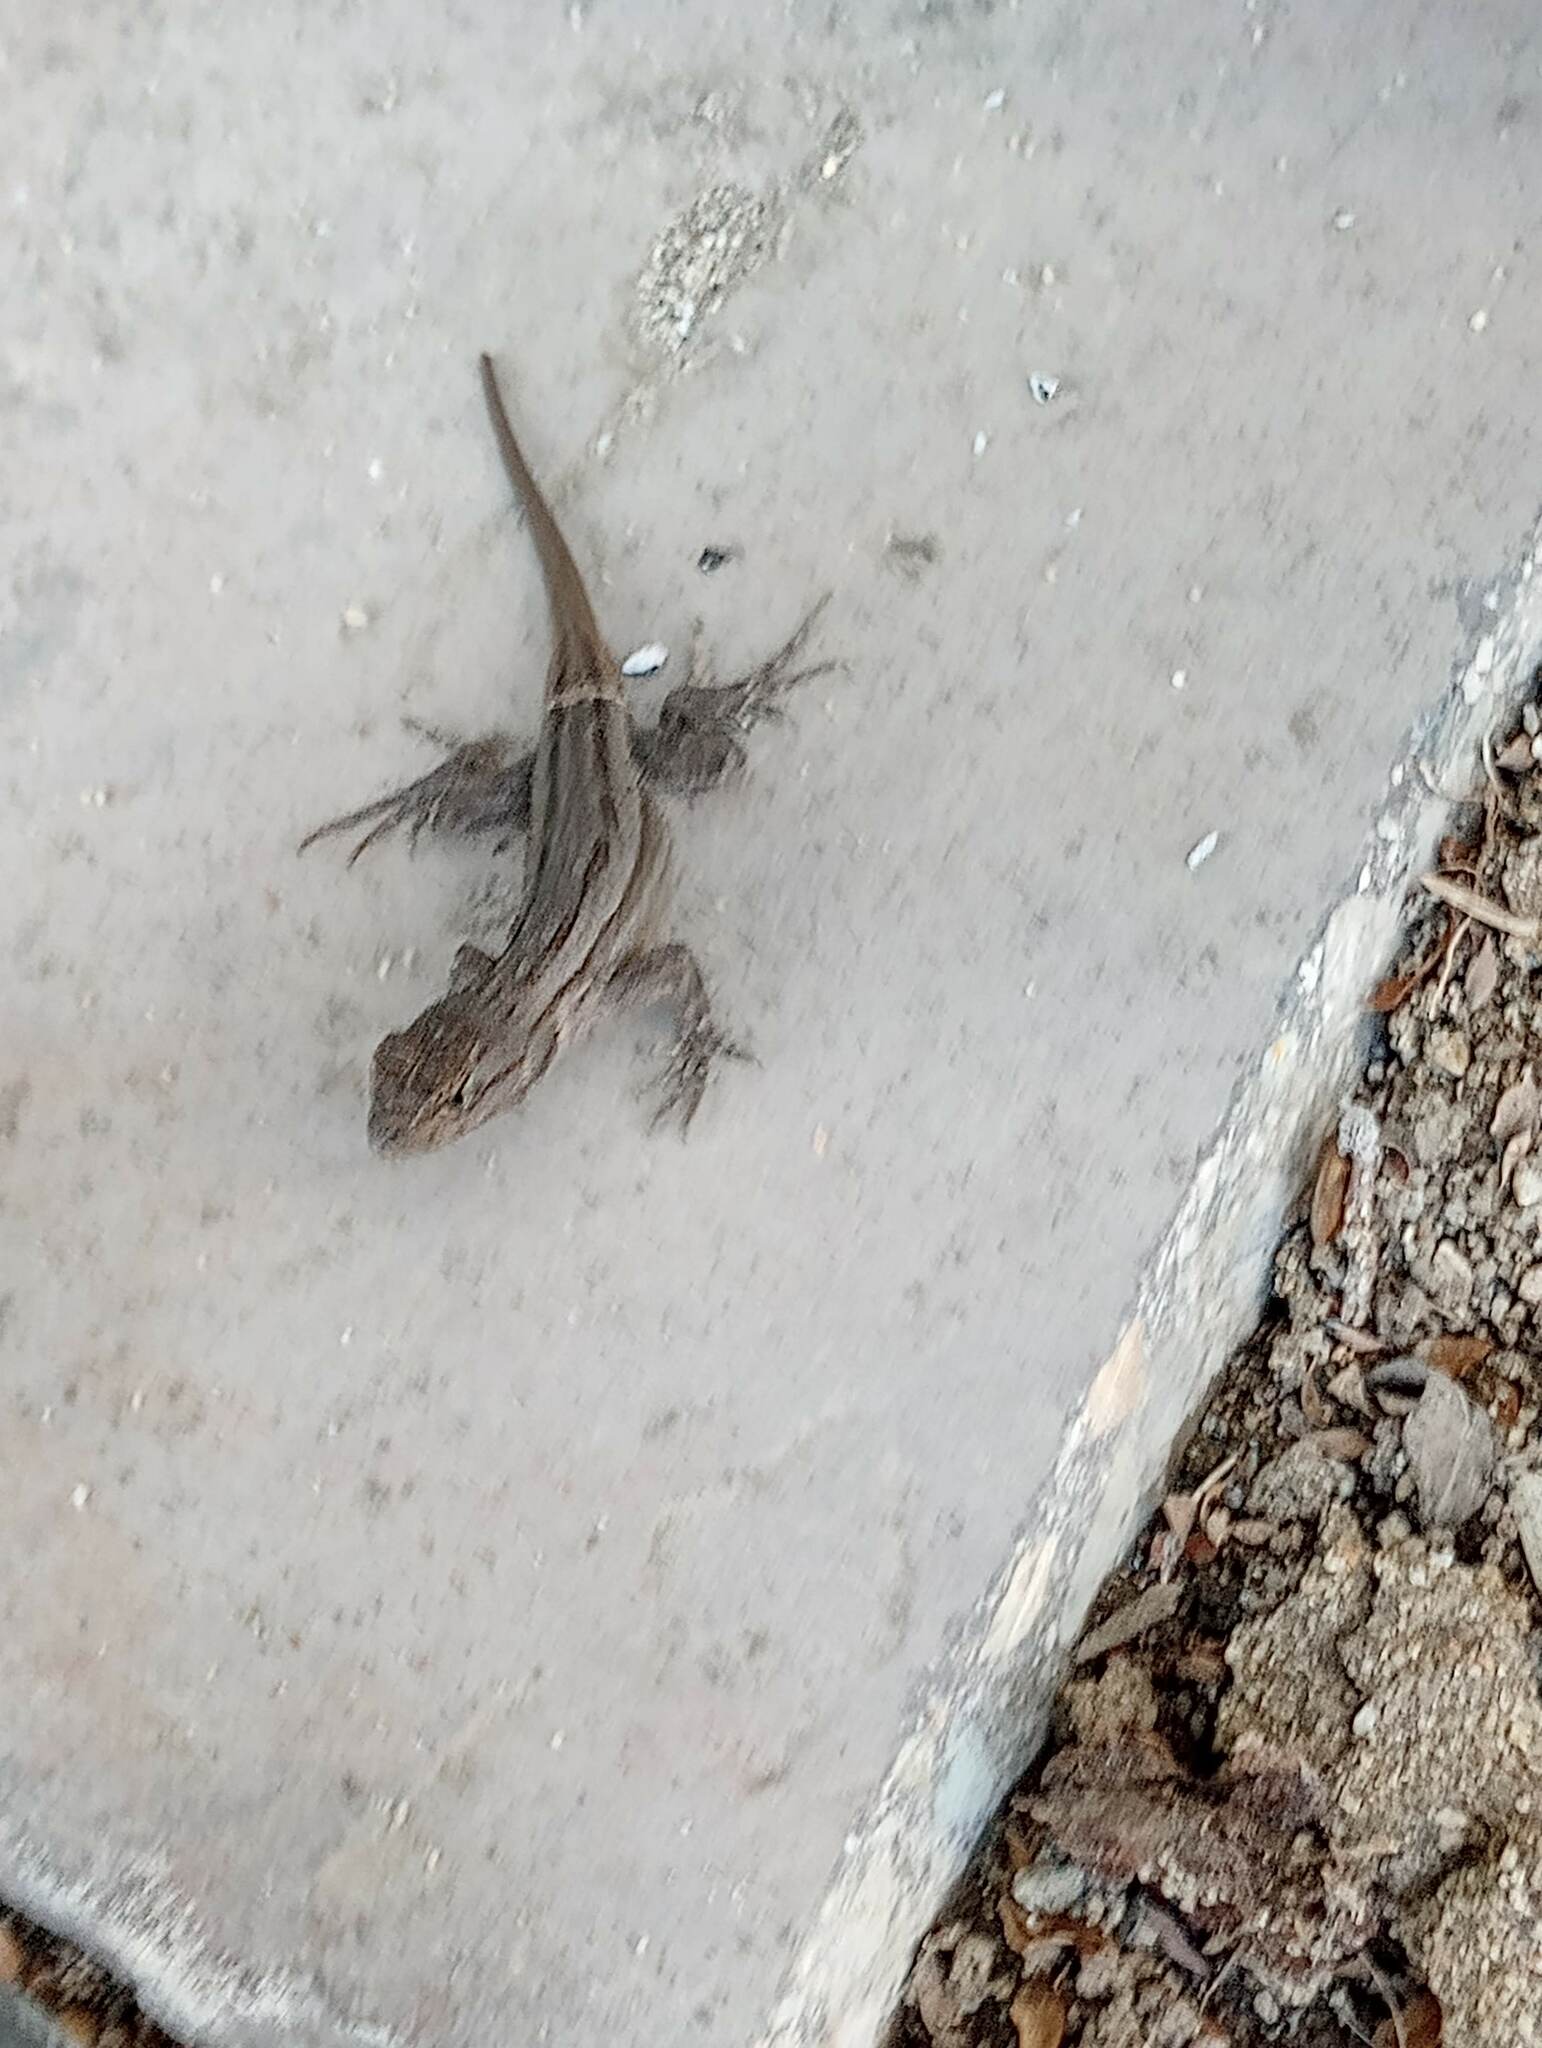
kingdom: Animalia
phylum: Chordata
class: Squamata
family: Phrynosomatidae
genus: Sceloporus
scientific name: Sceloporus occidentalis
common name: Western fence lizard
